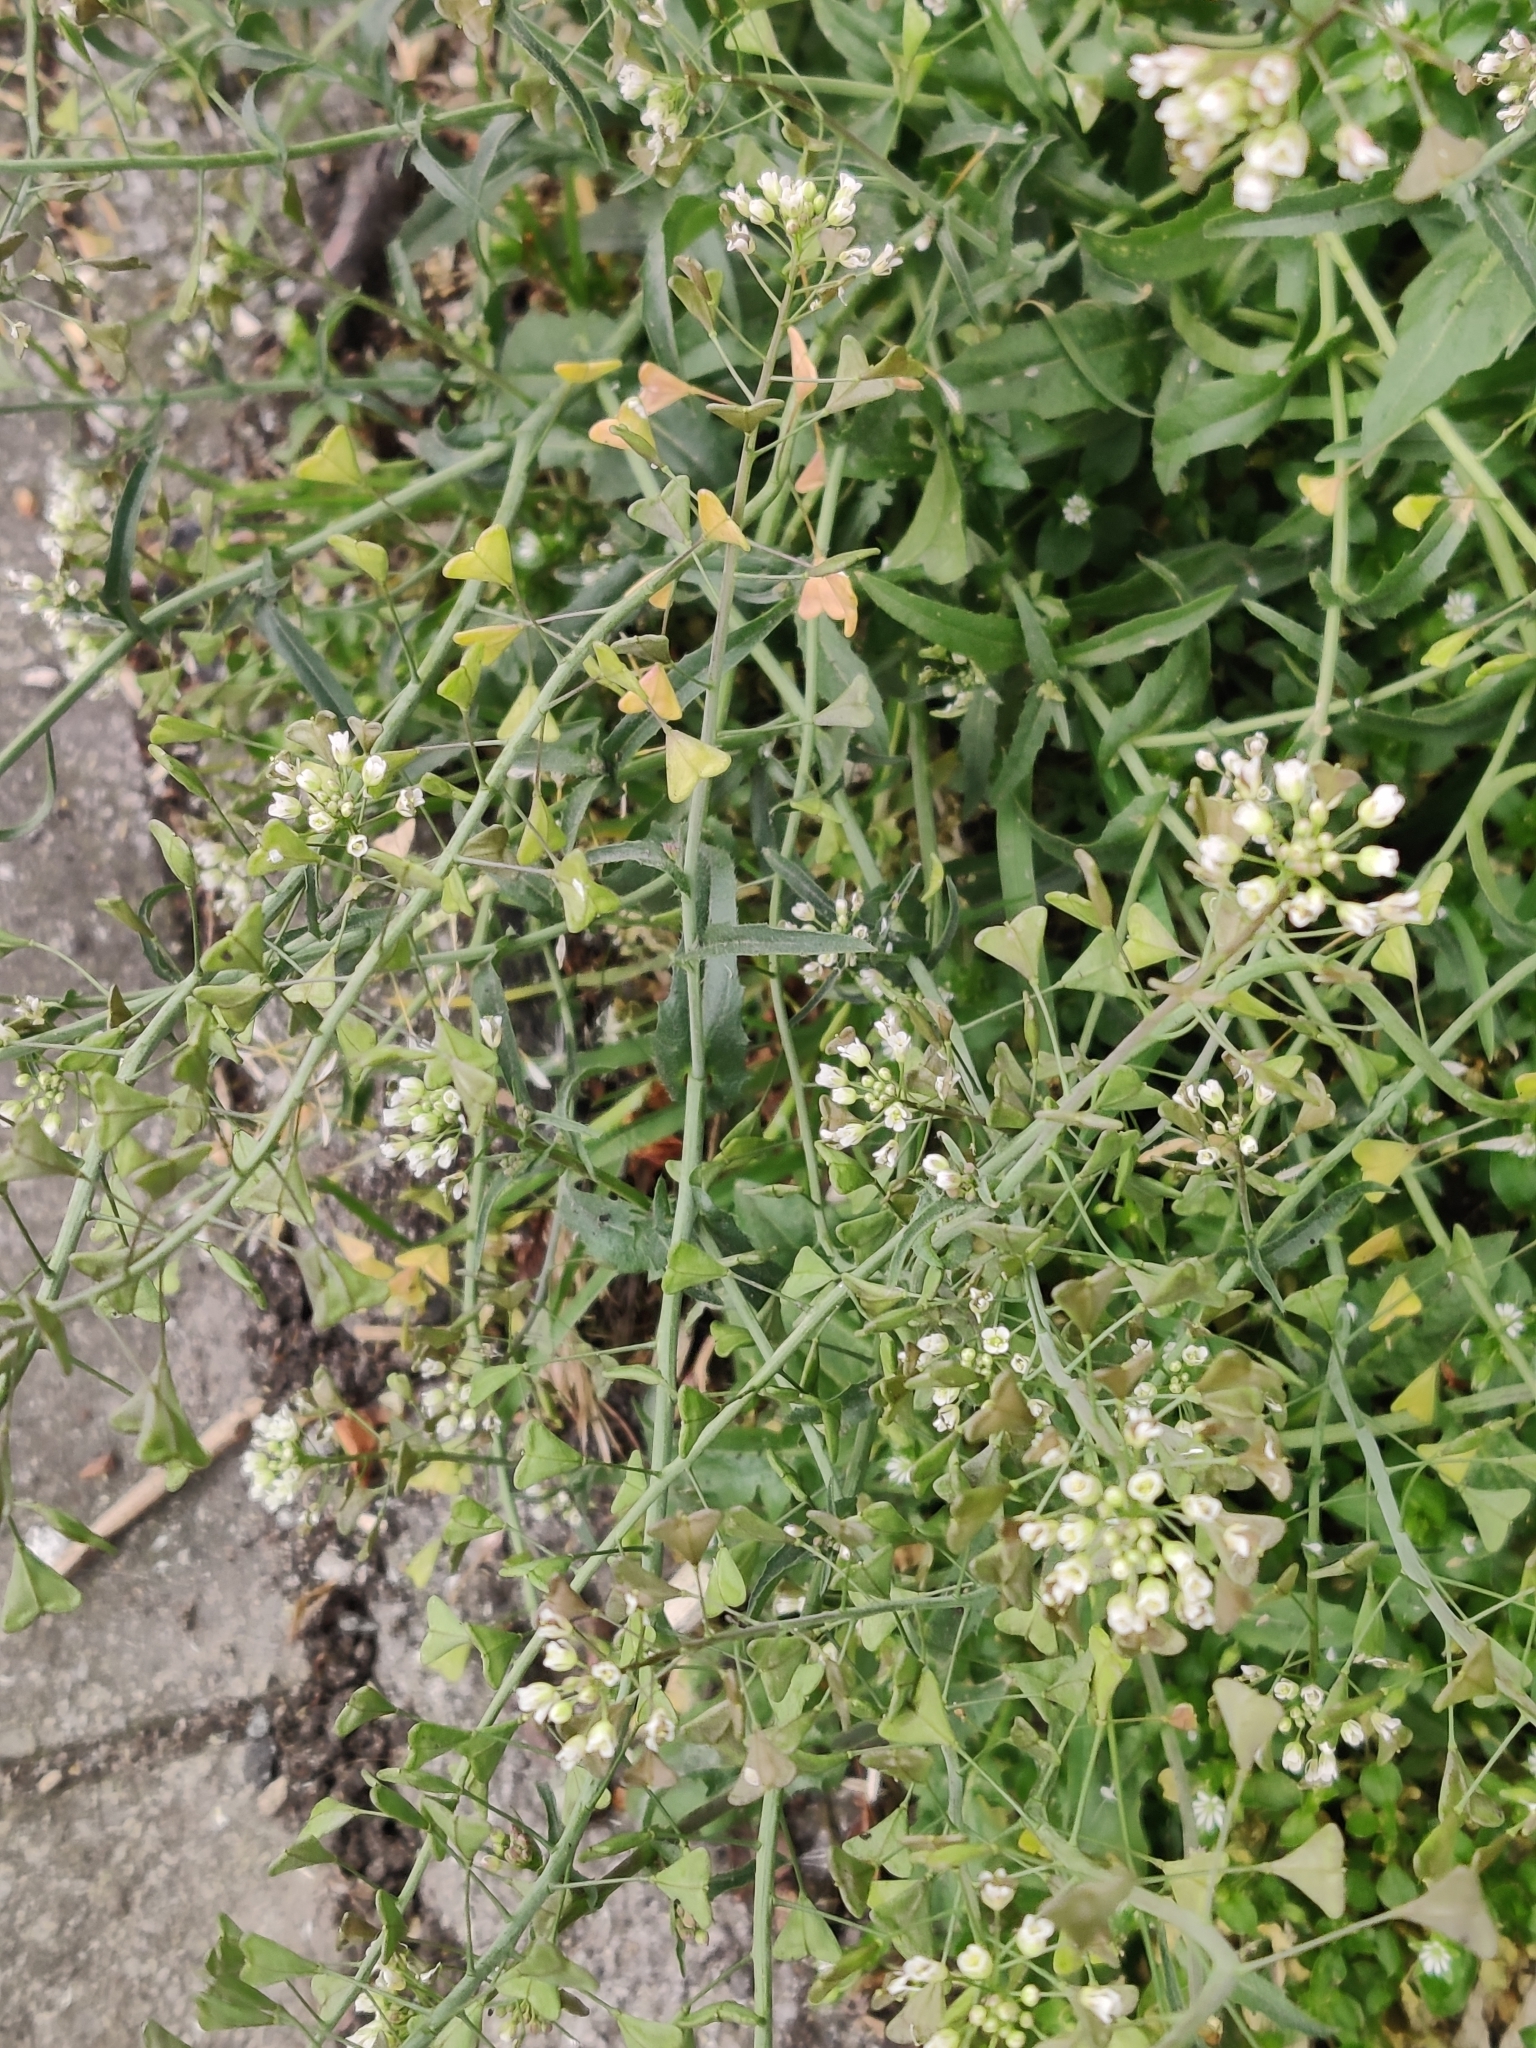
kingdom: Plantae
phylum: Tracheophyta
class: Magnoliopsida
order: Brassicales
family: Brassicaceae
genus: Capsella
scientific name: Capsella bursa-pastoris
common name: Shepherd's purse
